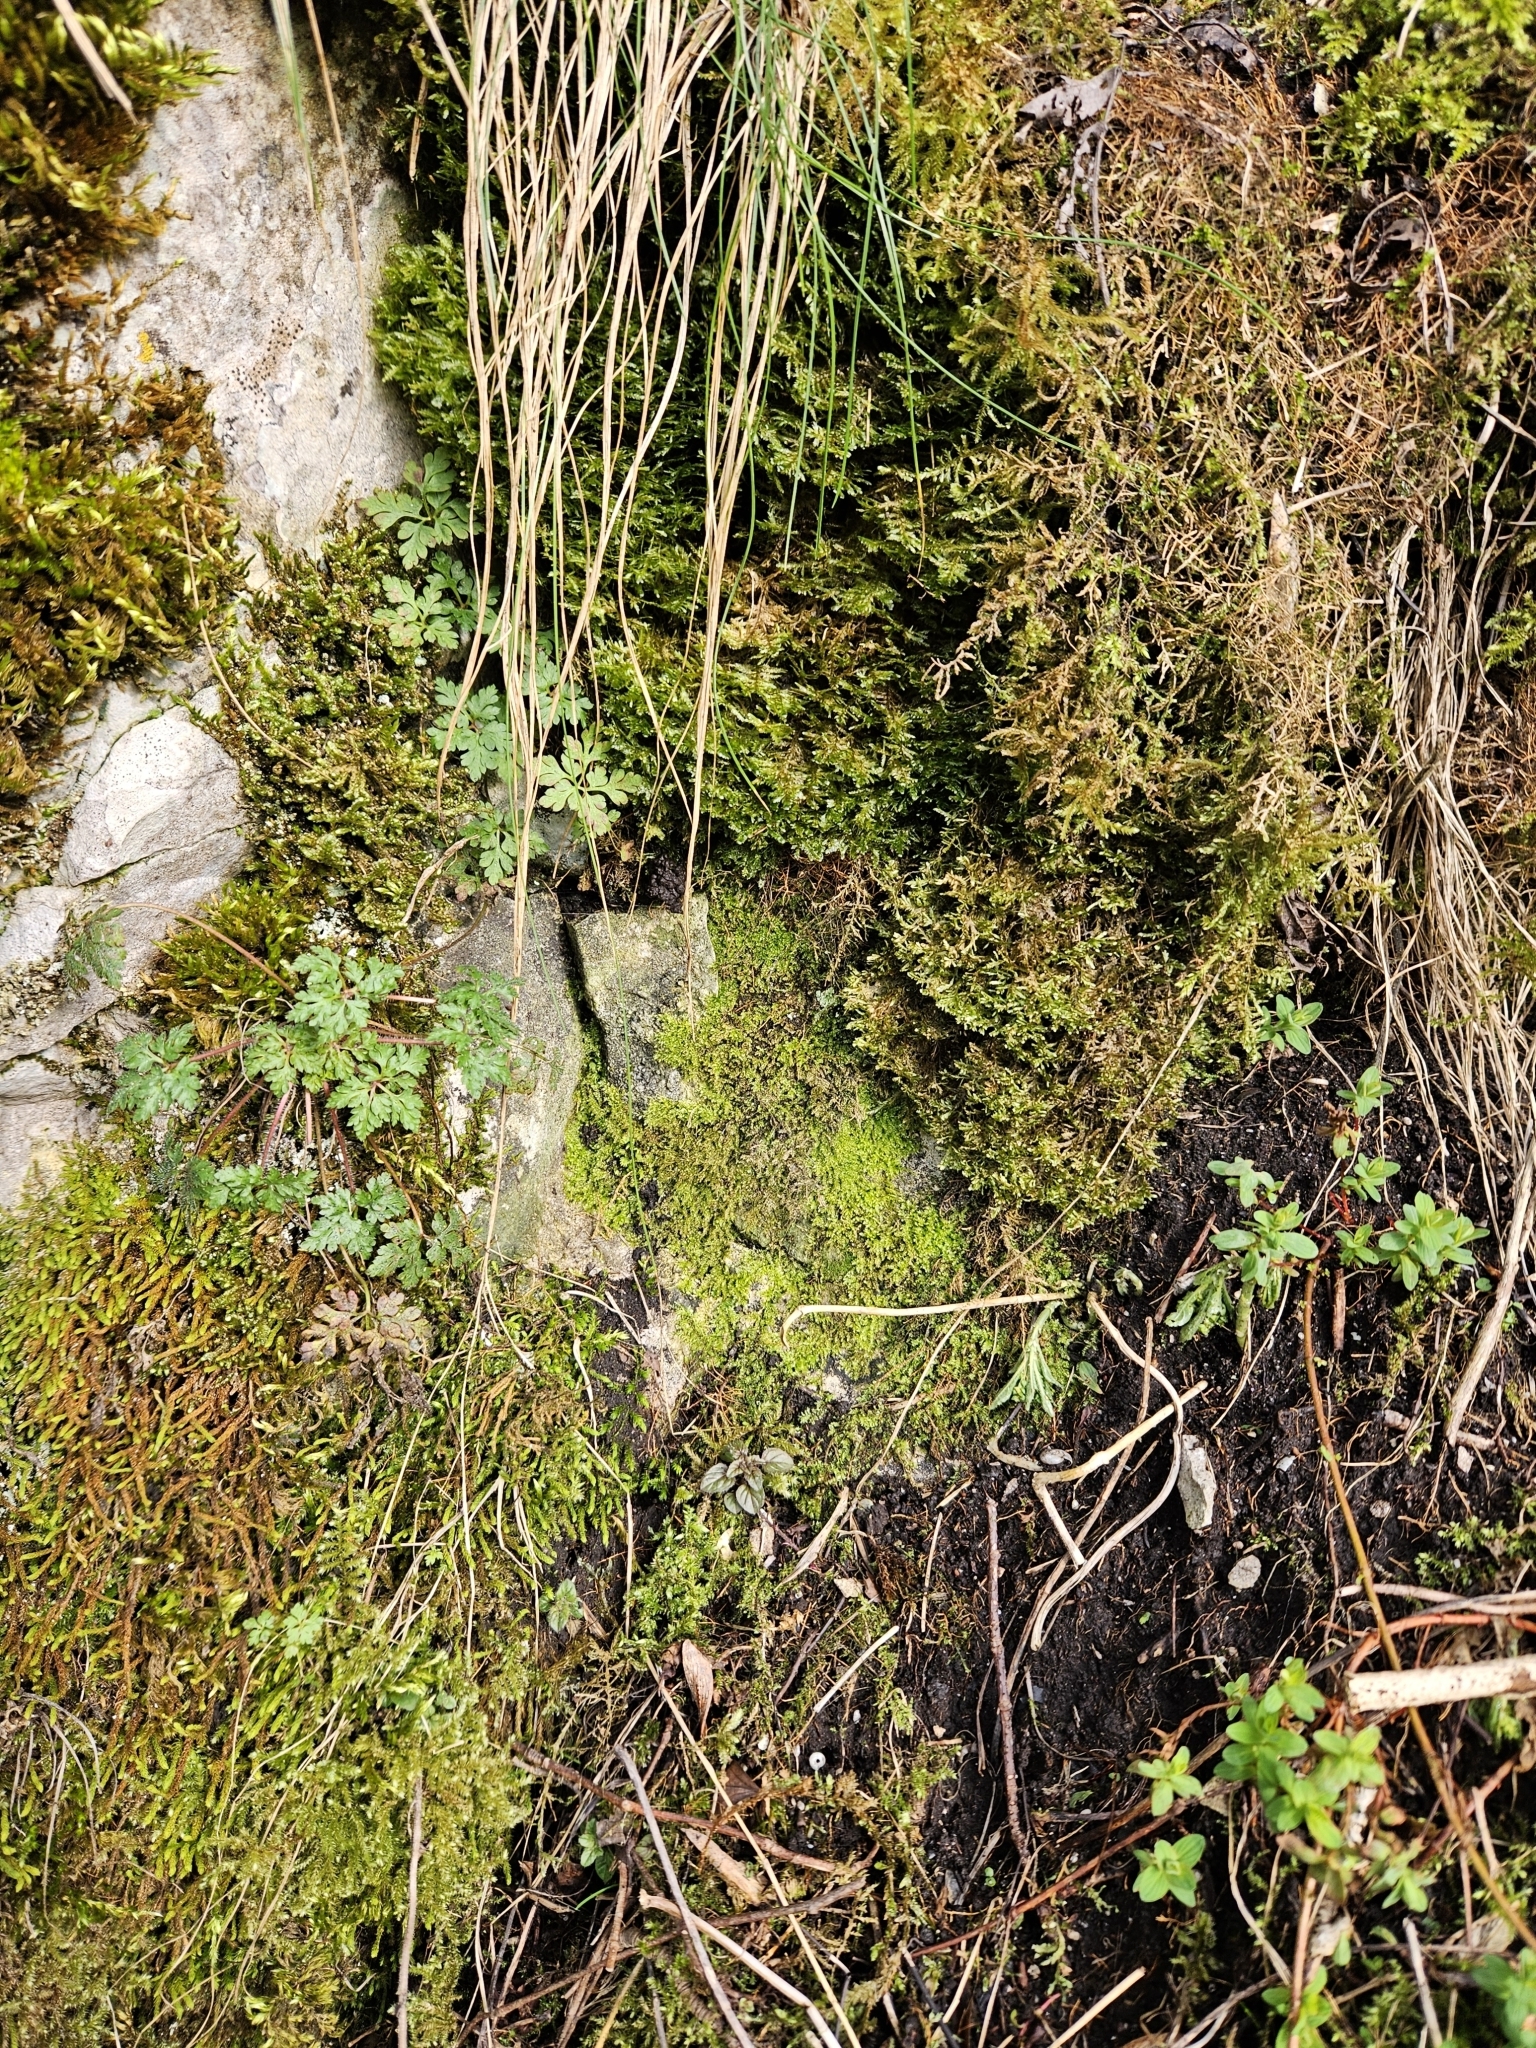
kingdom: Plantae
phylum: Bryophyta
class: Bryopsida
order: Hypnales
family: Brachytheciaceae
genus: Oxyrrhynchium
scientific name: Oxyrrhynchium hians
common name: Spreading beaked moss
